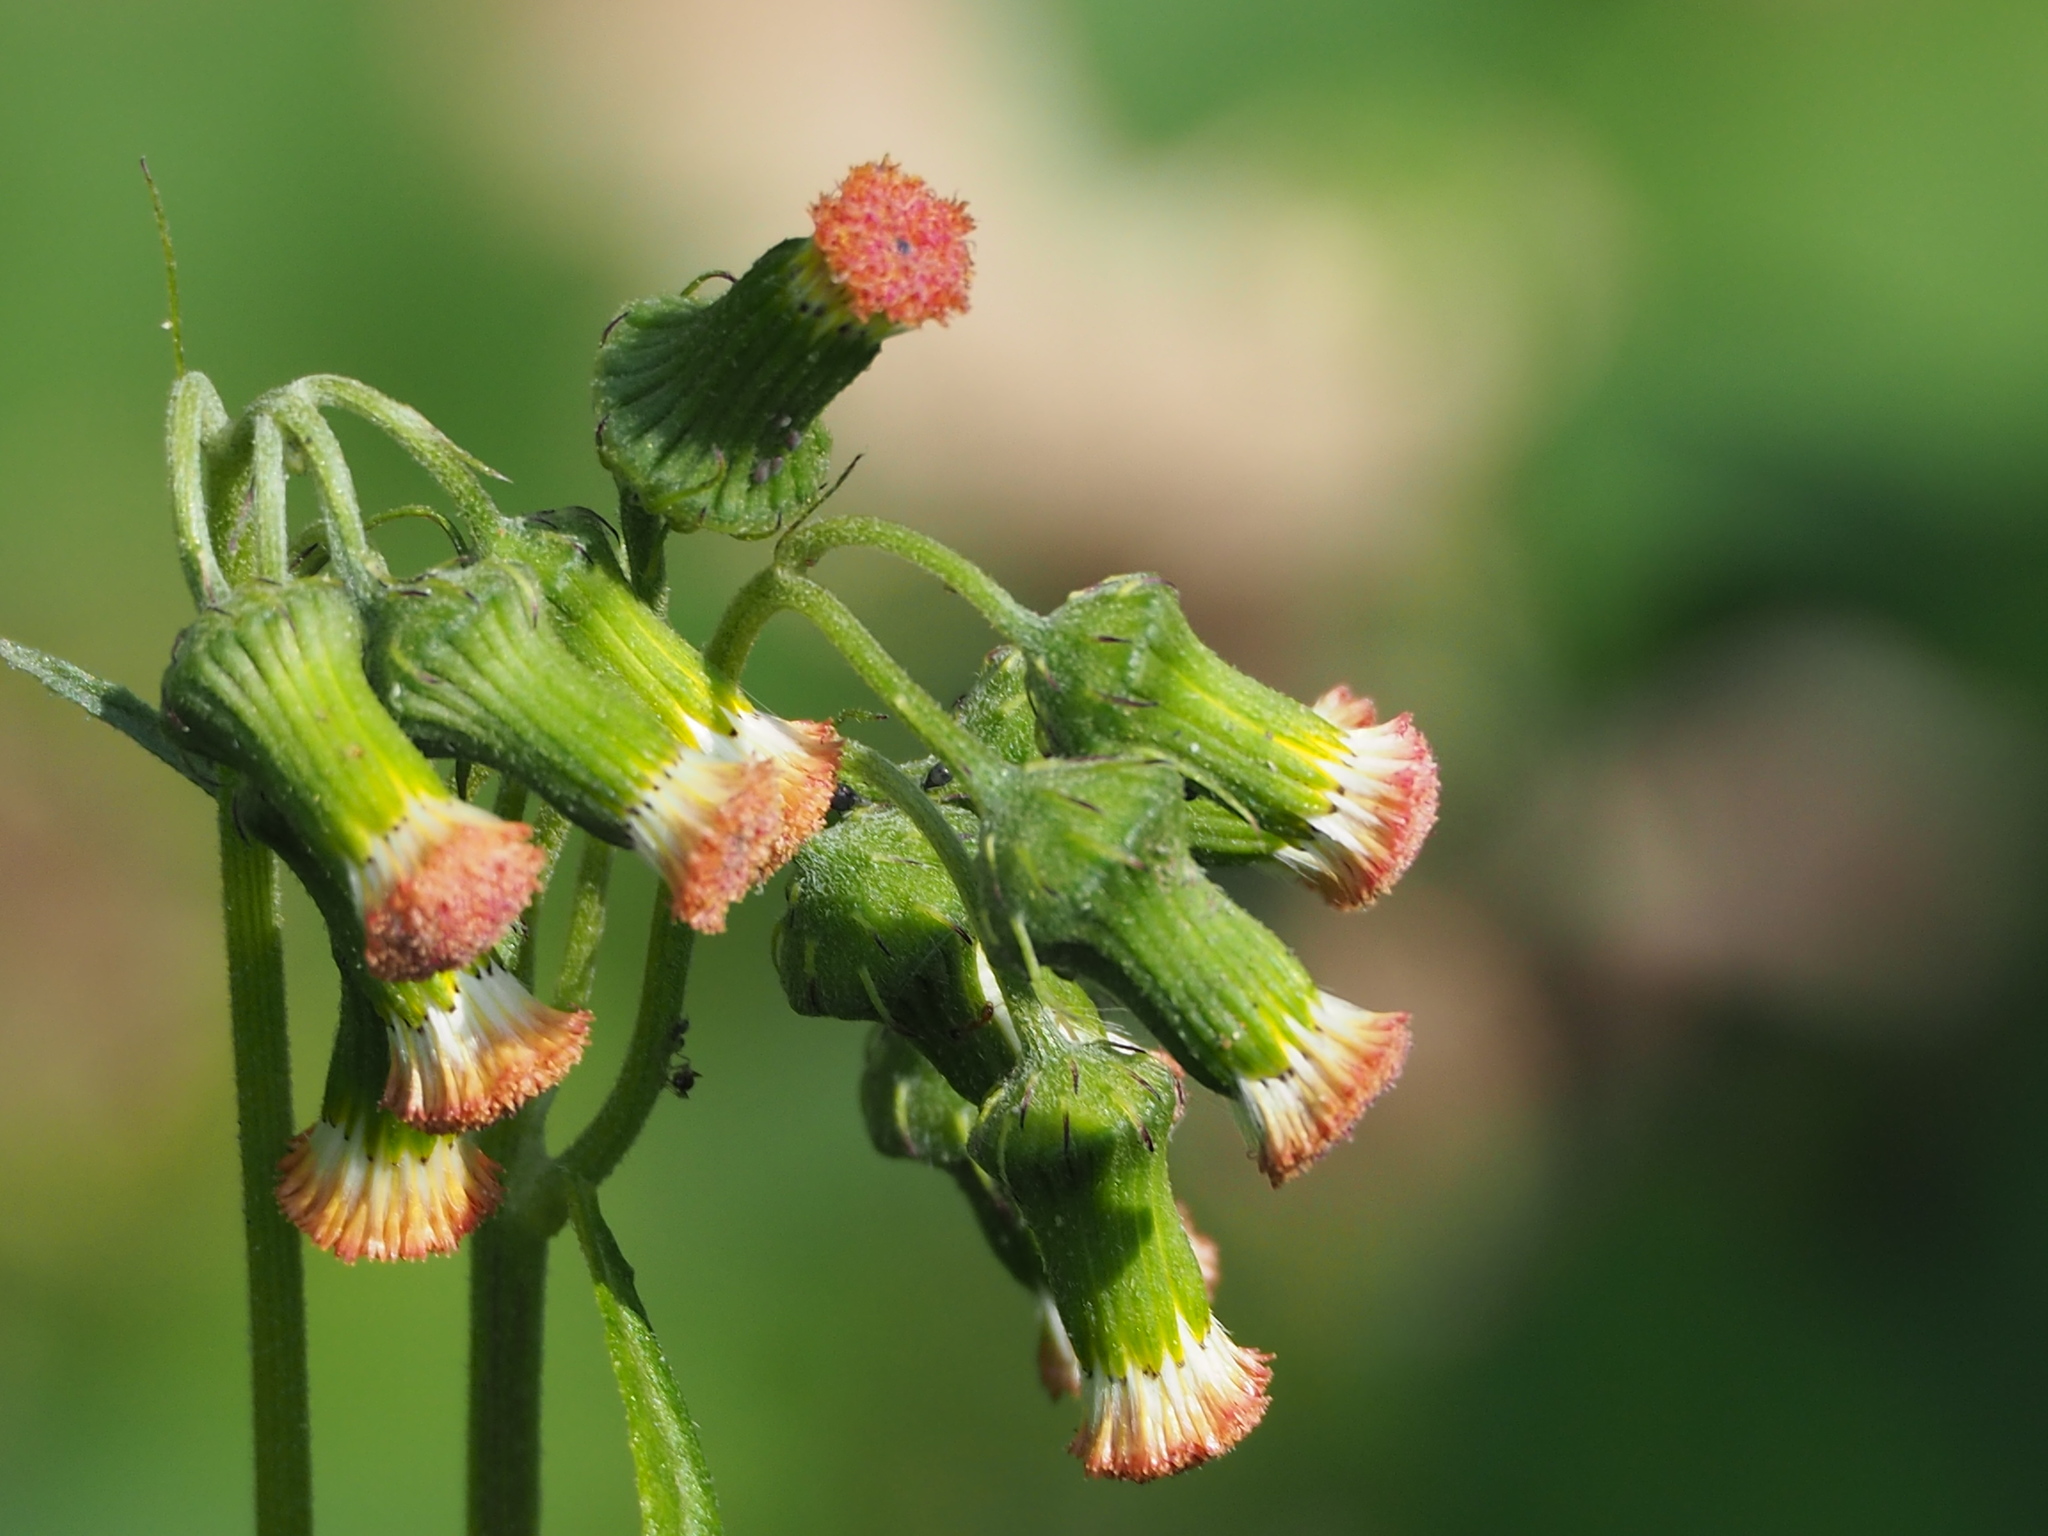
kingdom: Plantae
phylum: Tracheophyta
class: Magnoliopsida
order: Asterales
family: Asteraceae
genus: Crassocephalum
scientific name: Crassocephalum crepidioides
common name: Redflower ragleaf
